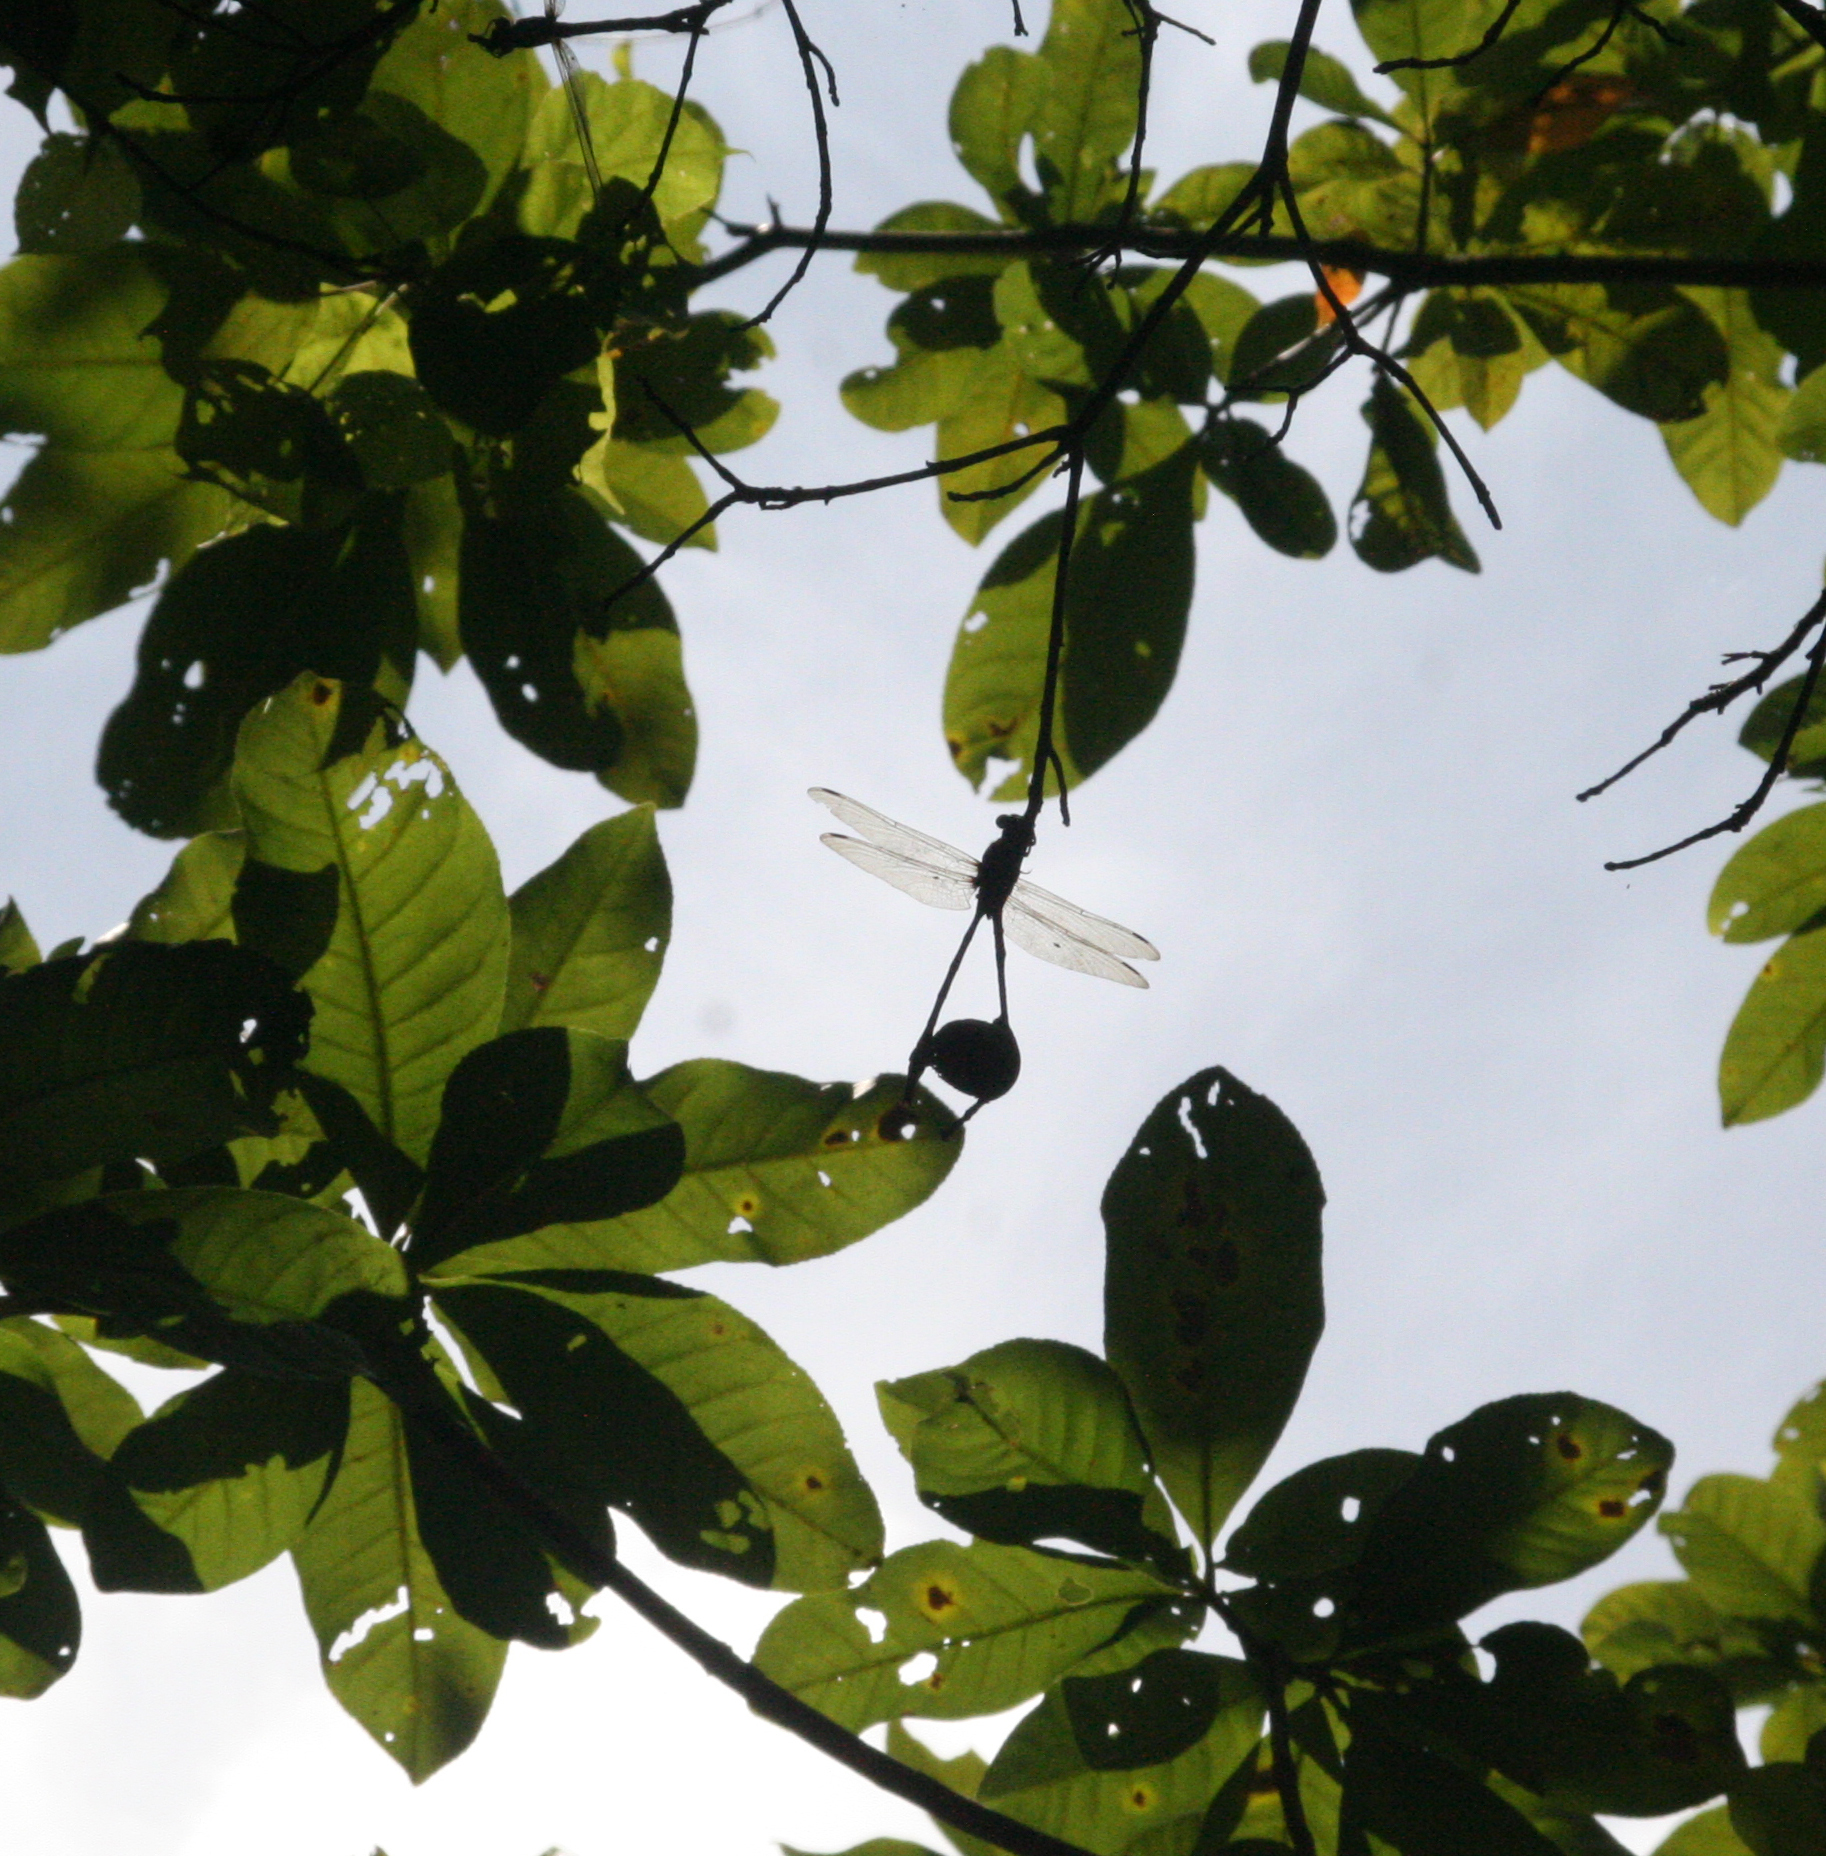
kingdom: Animalia
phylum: Arthropoda
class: Insecta
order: Odonata
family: Gomphidae
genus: Macrogomphus
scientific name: Macrogomphus kerri
